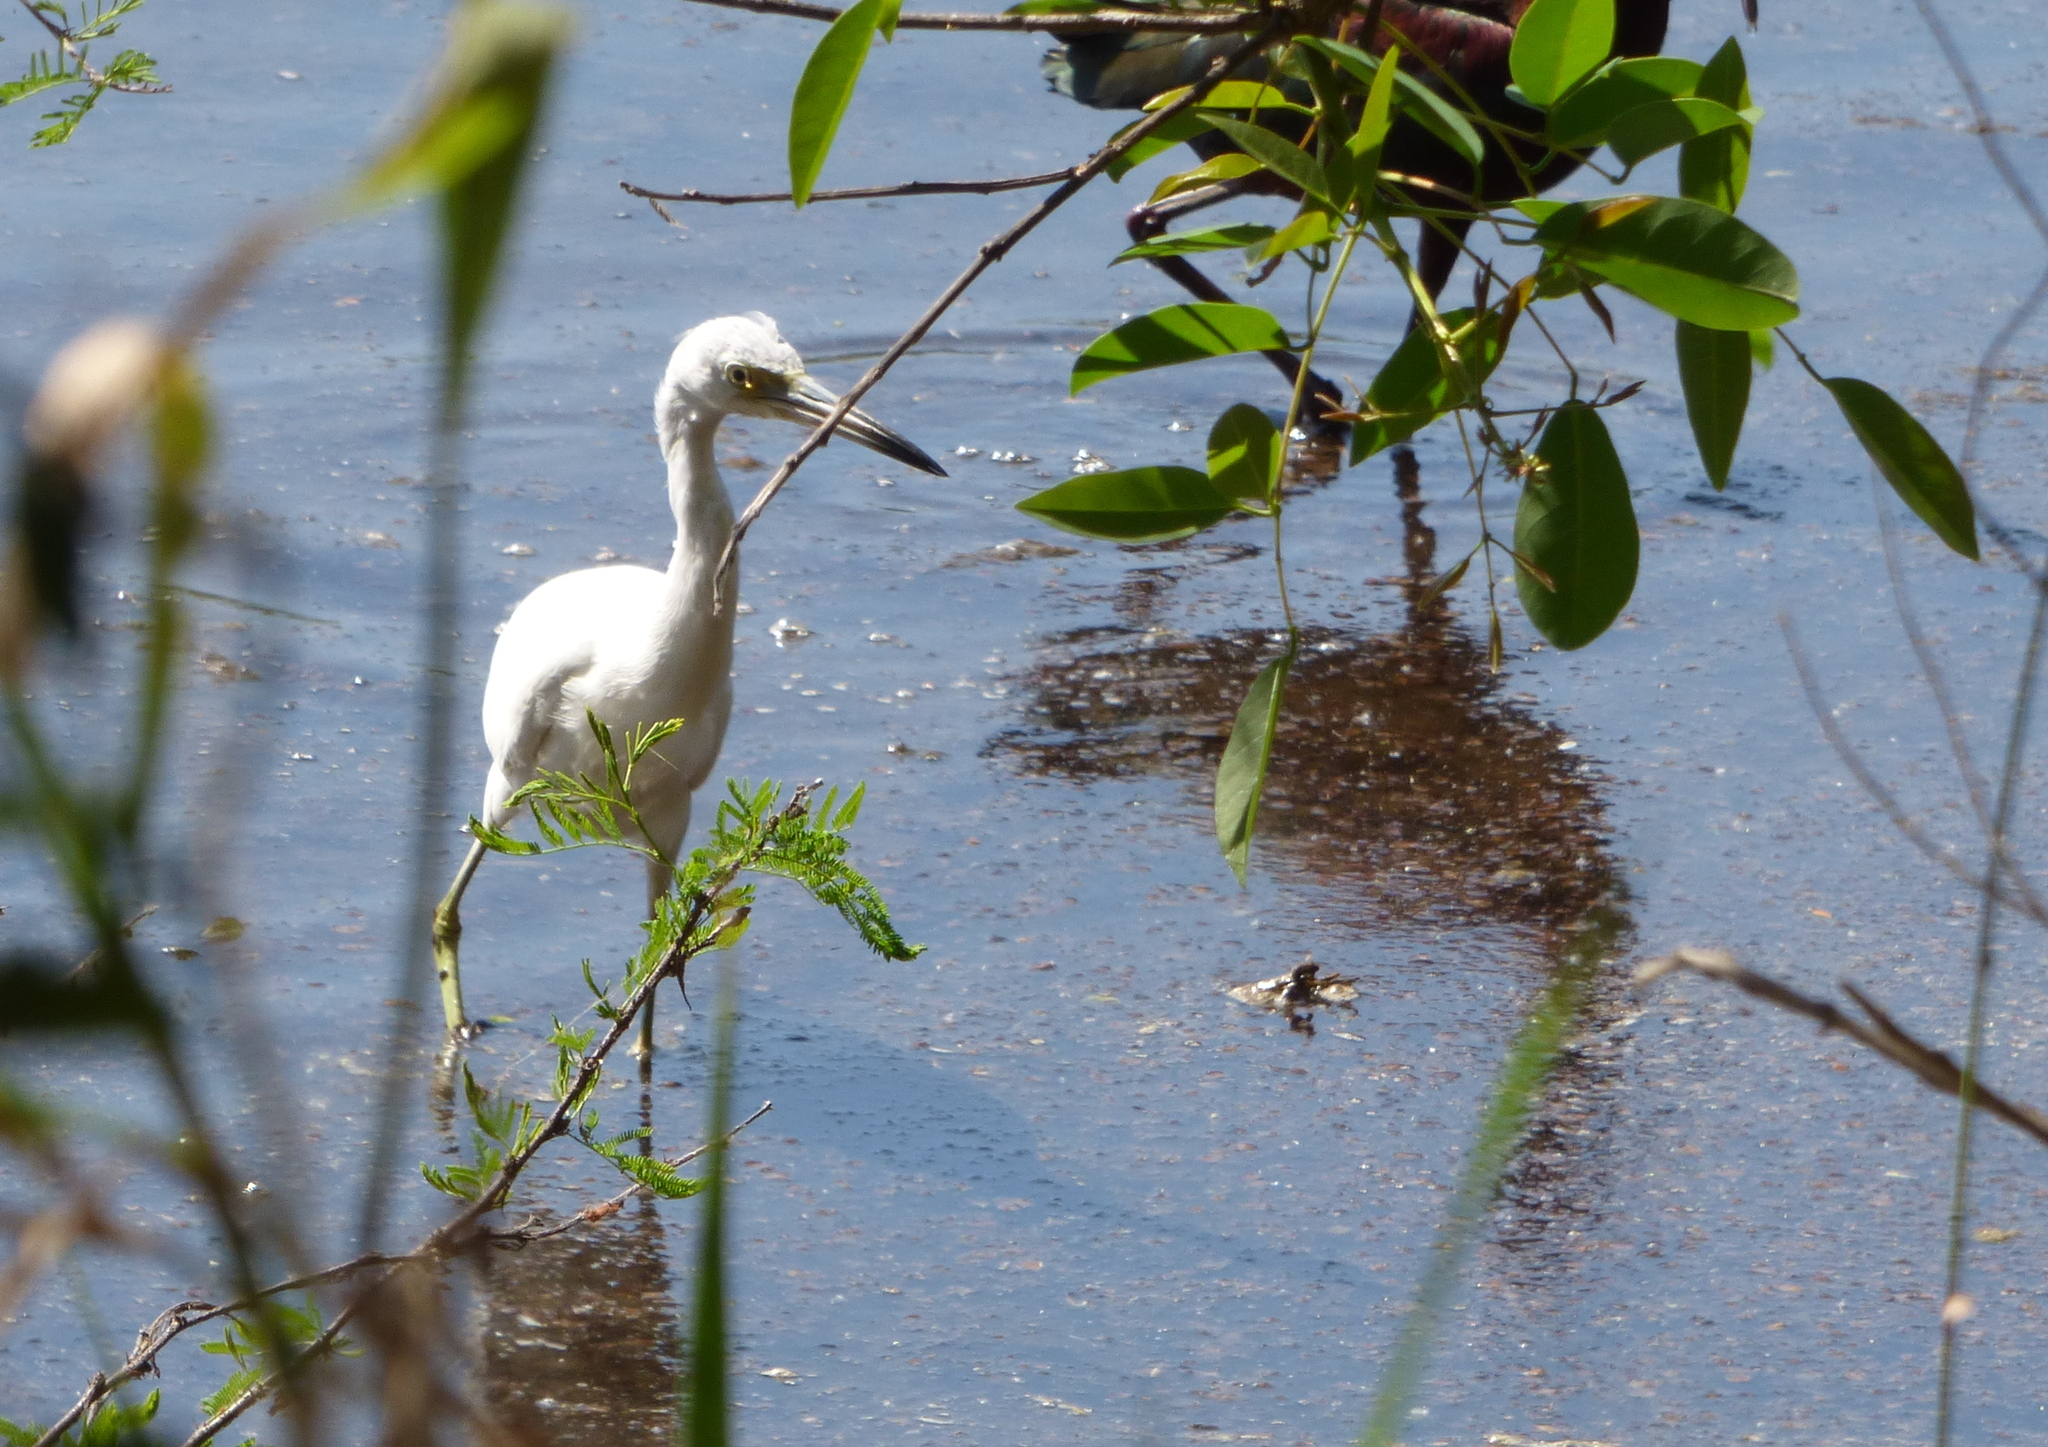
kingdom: Animalia
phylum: Chordata
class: Aves
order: Pelecaniformes
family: Ardeidae
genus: Egretta
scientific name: Egretta caerulea
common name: Little blue heron
